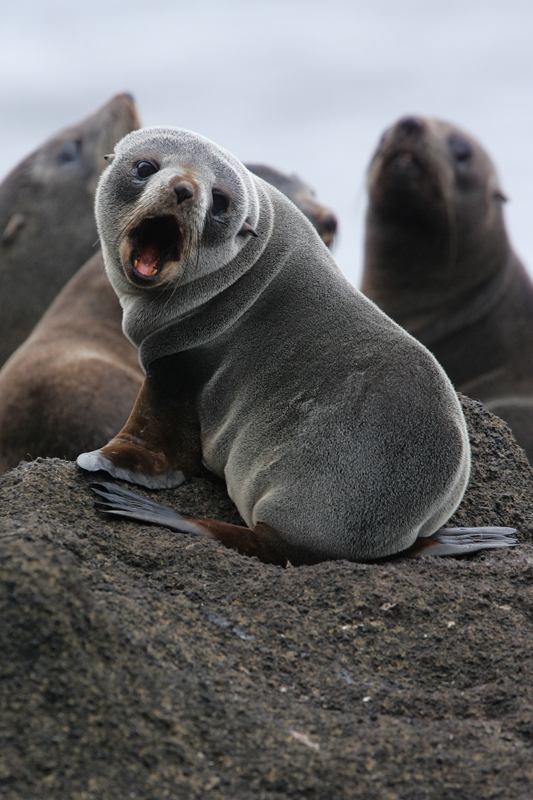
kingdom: Animalia
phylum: Chordata
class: Mammalia
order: Carnivora
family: Otariidae
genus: Arctocephalus
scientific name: Arctocephalus tropicalis
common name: Subantarctic fur seal
